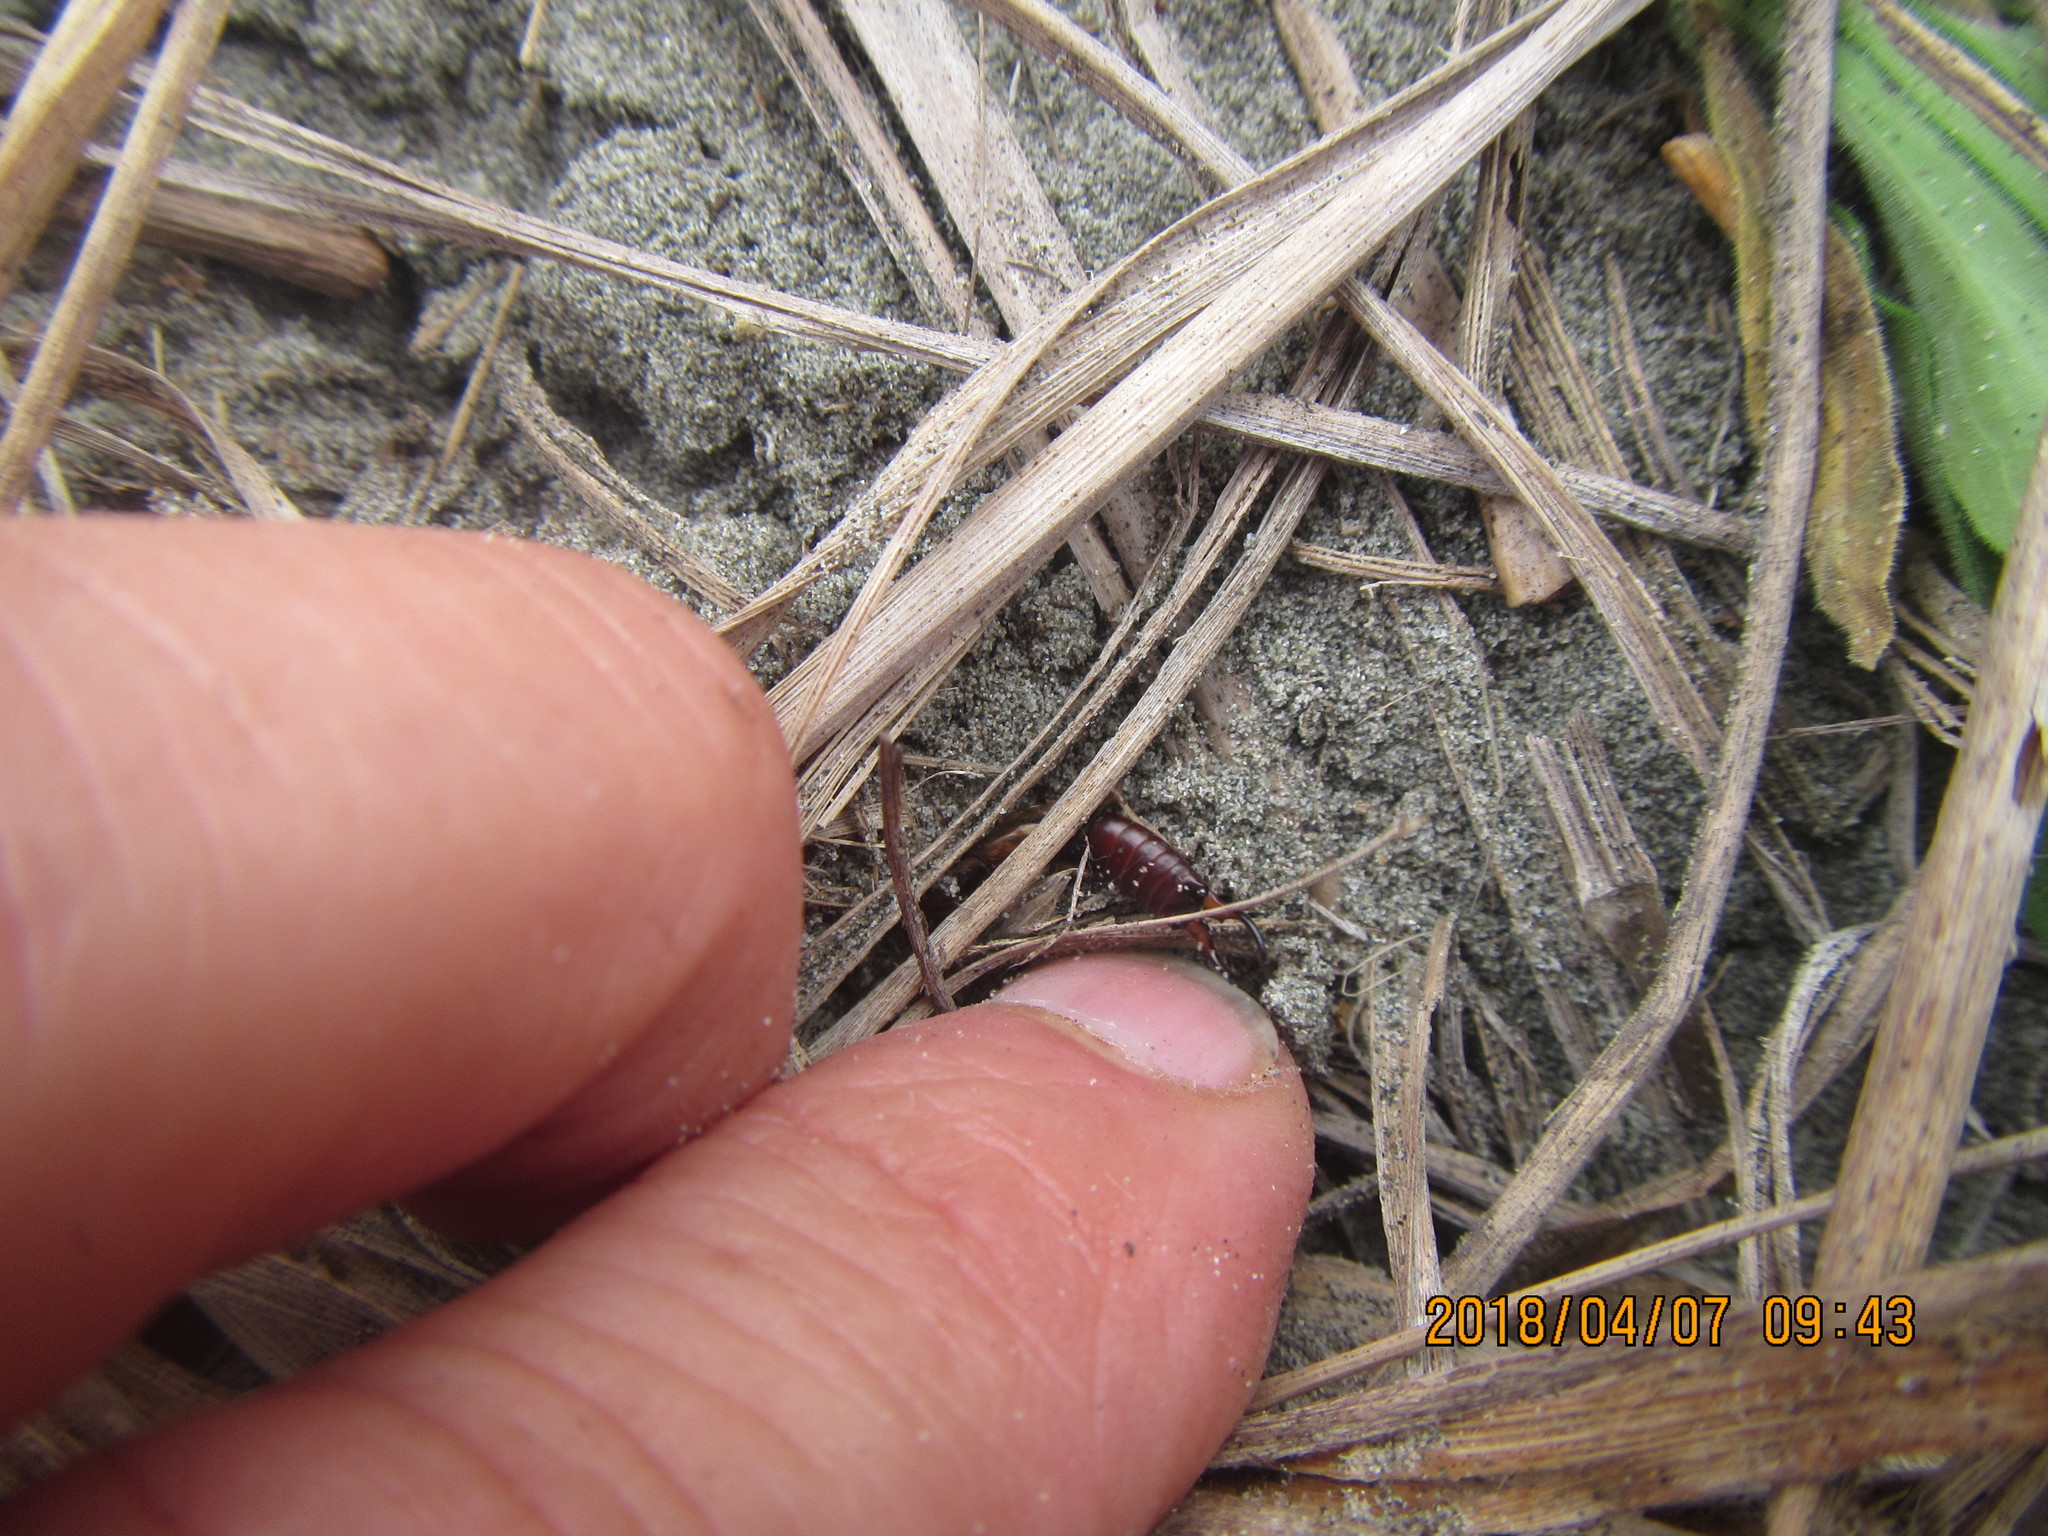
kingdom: Animalia
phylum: Arthropoda
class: Insecta
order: Dermaptera
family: Forficulidae
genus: Forficula
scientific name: Forficula
